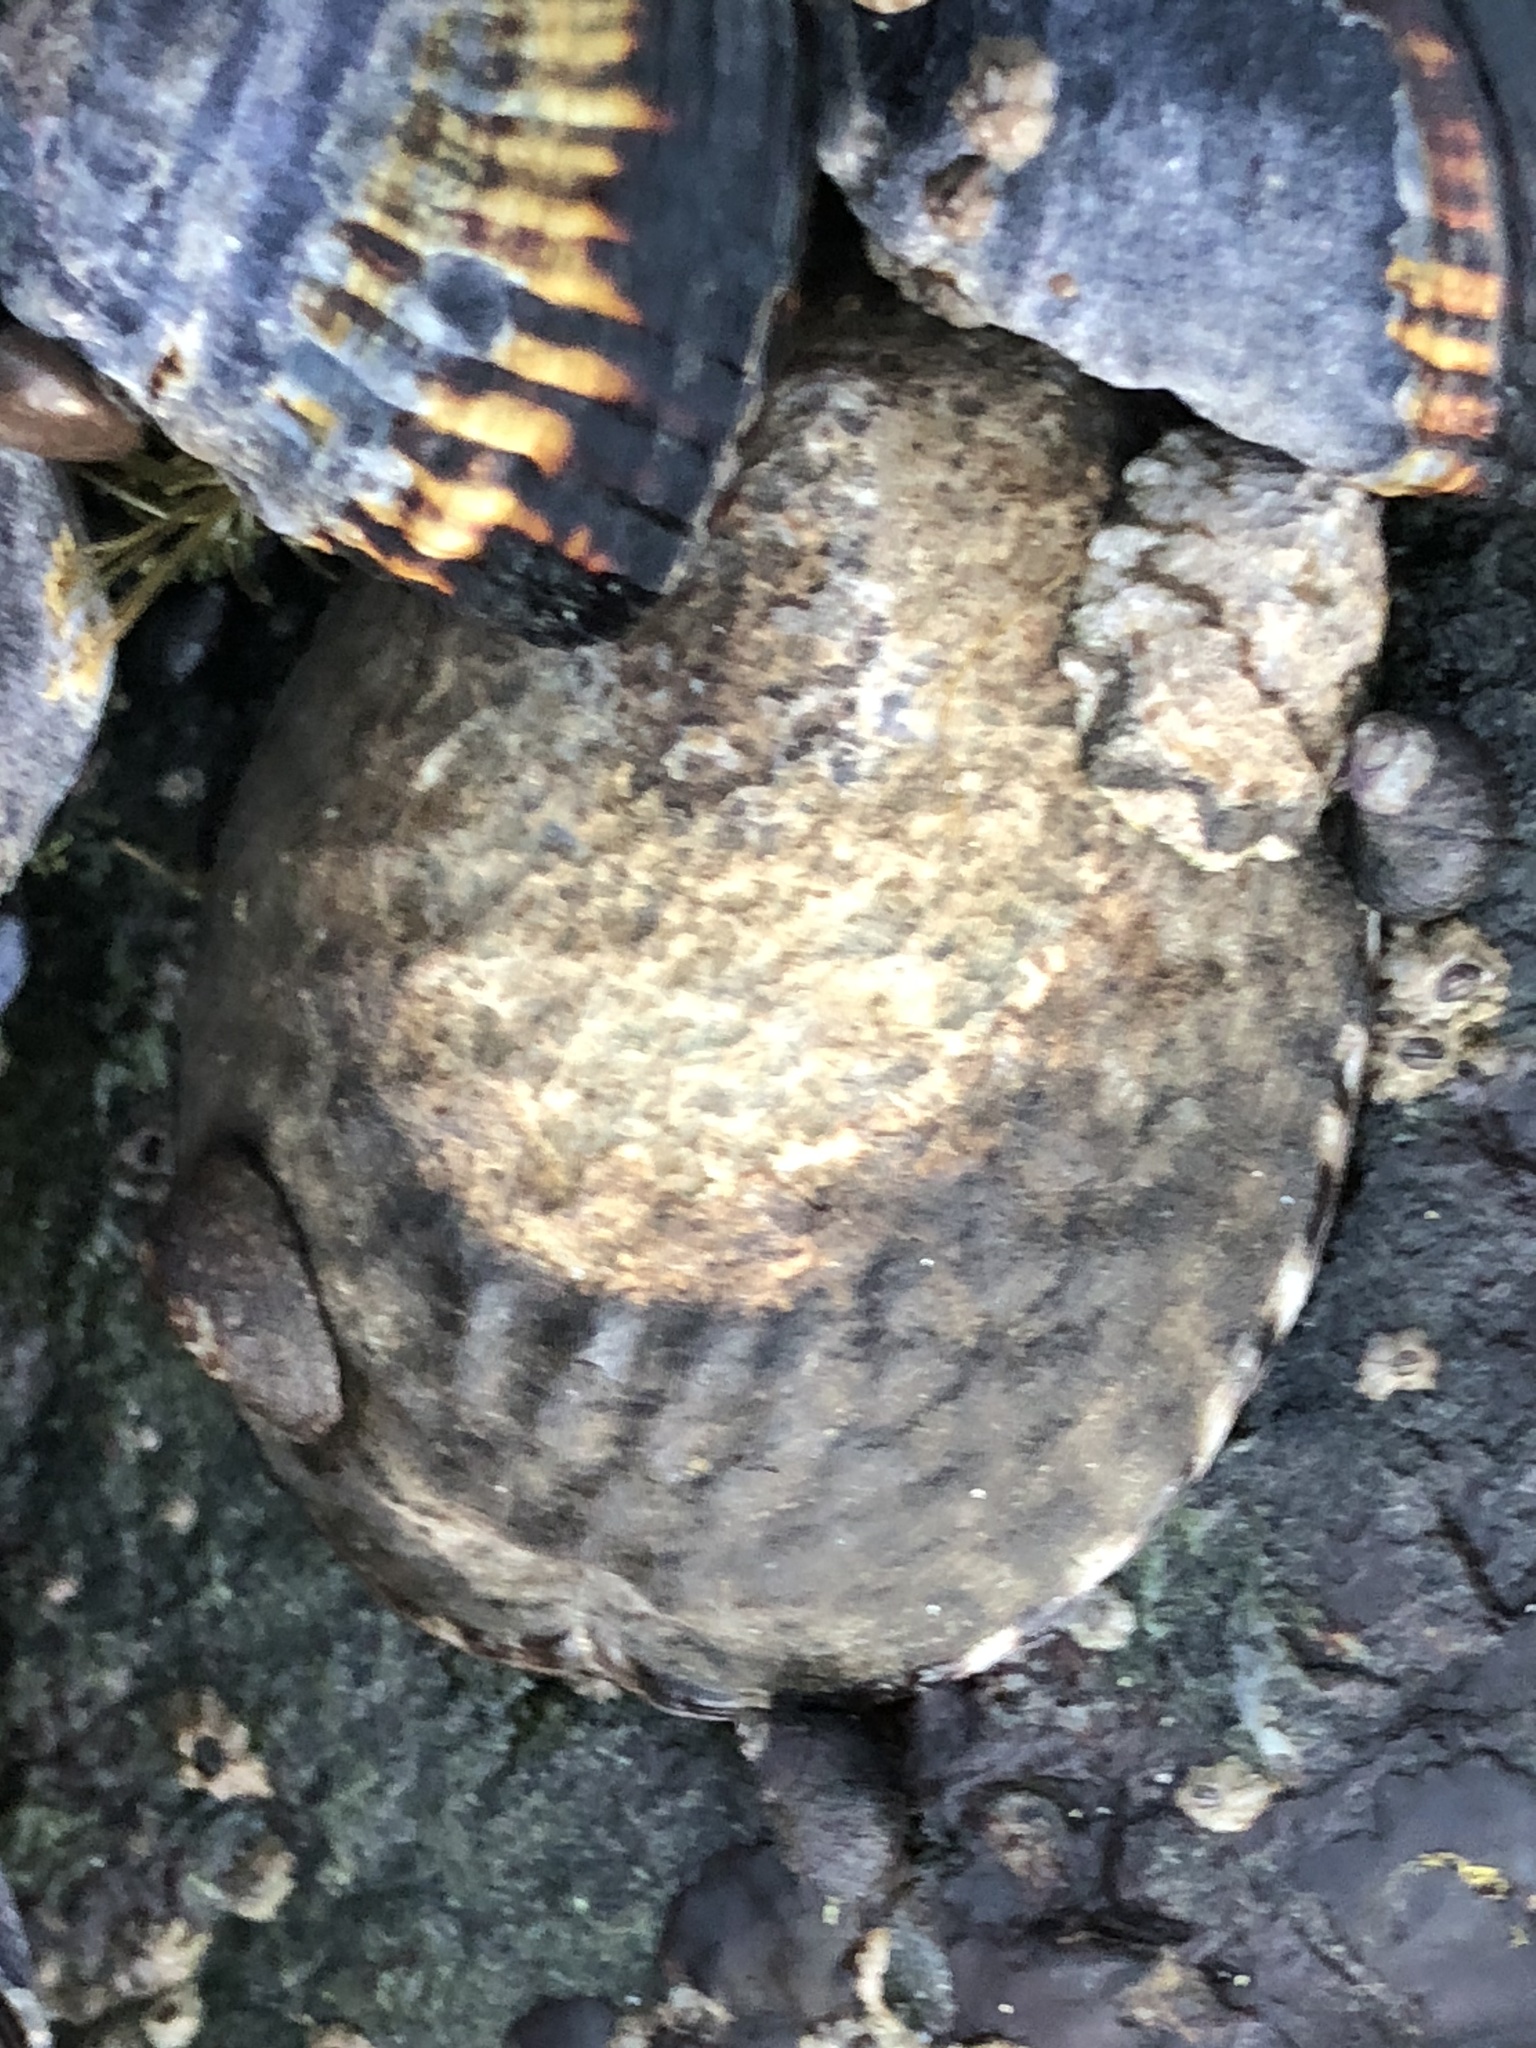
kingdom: Animalia
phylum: Mollusca
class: Gastropoda
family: Lottiidae
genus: Lottia
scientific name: Lottia gigantea
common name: Owl limpet
